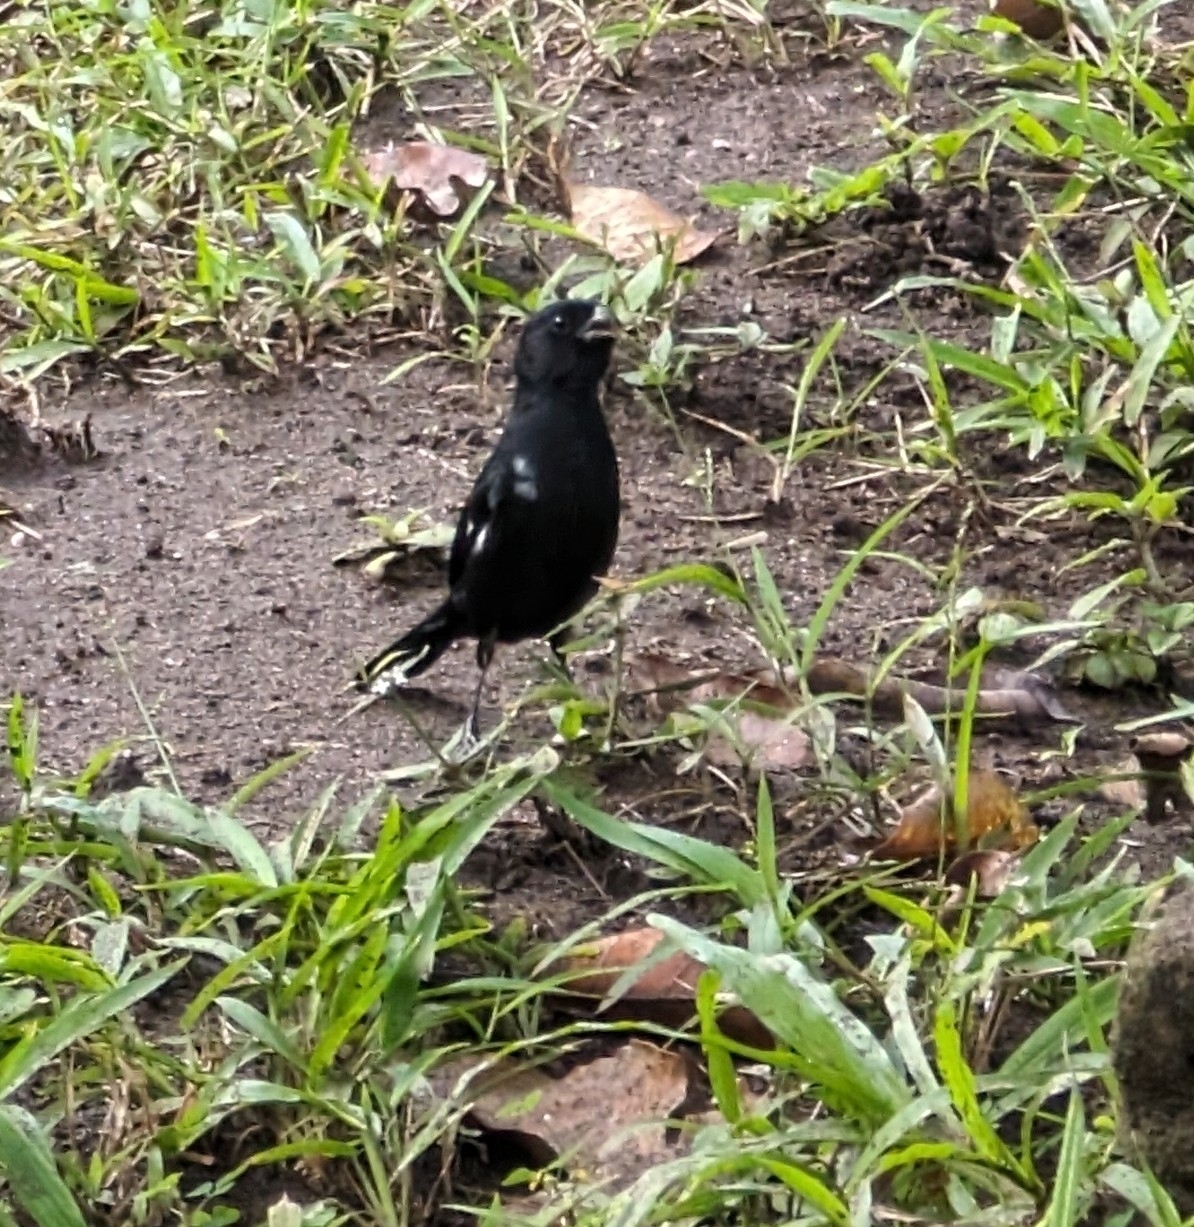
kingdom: Animalia
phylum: Chordata
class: Aves
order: Passeriformes
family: Thraupidae
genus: Sporophila
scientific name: Sporophila corvina
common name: Variable seedeater
